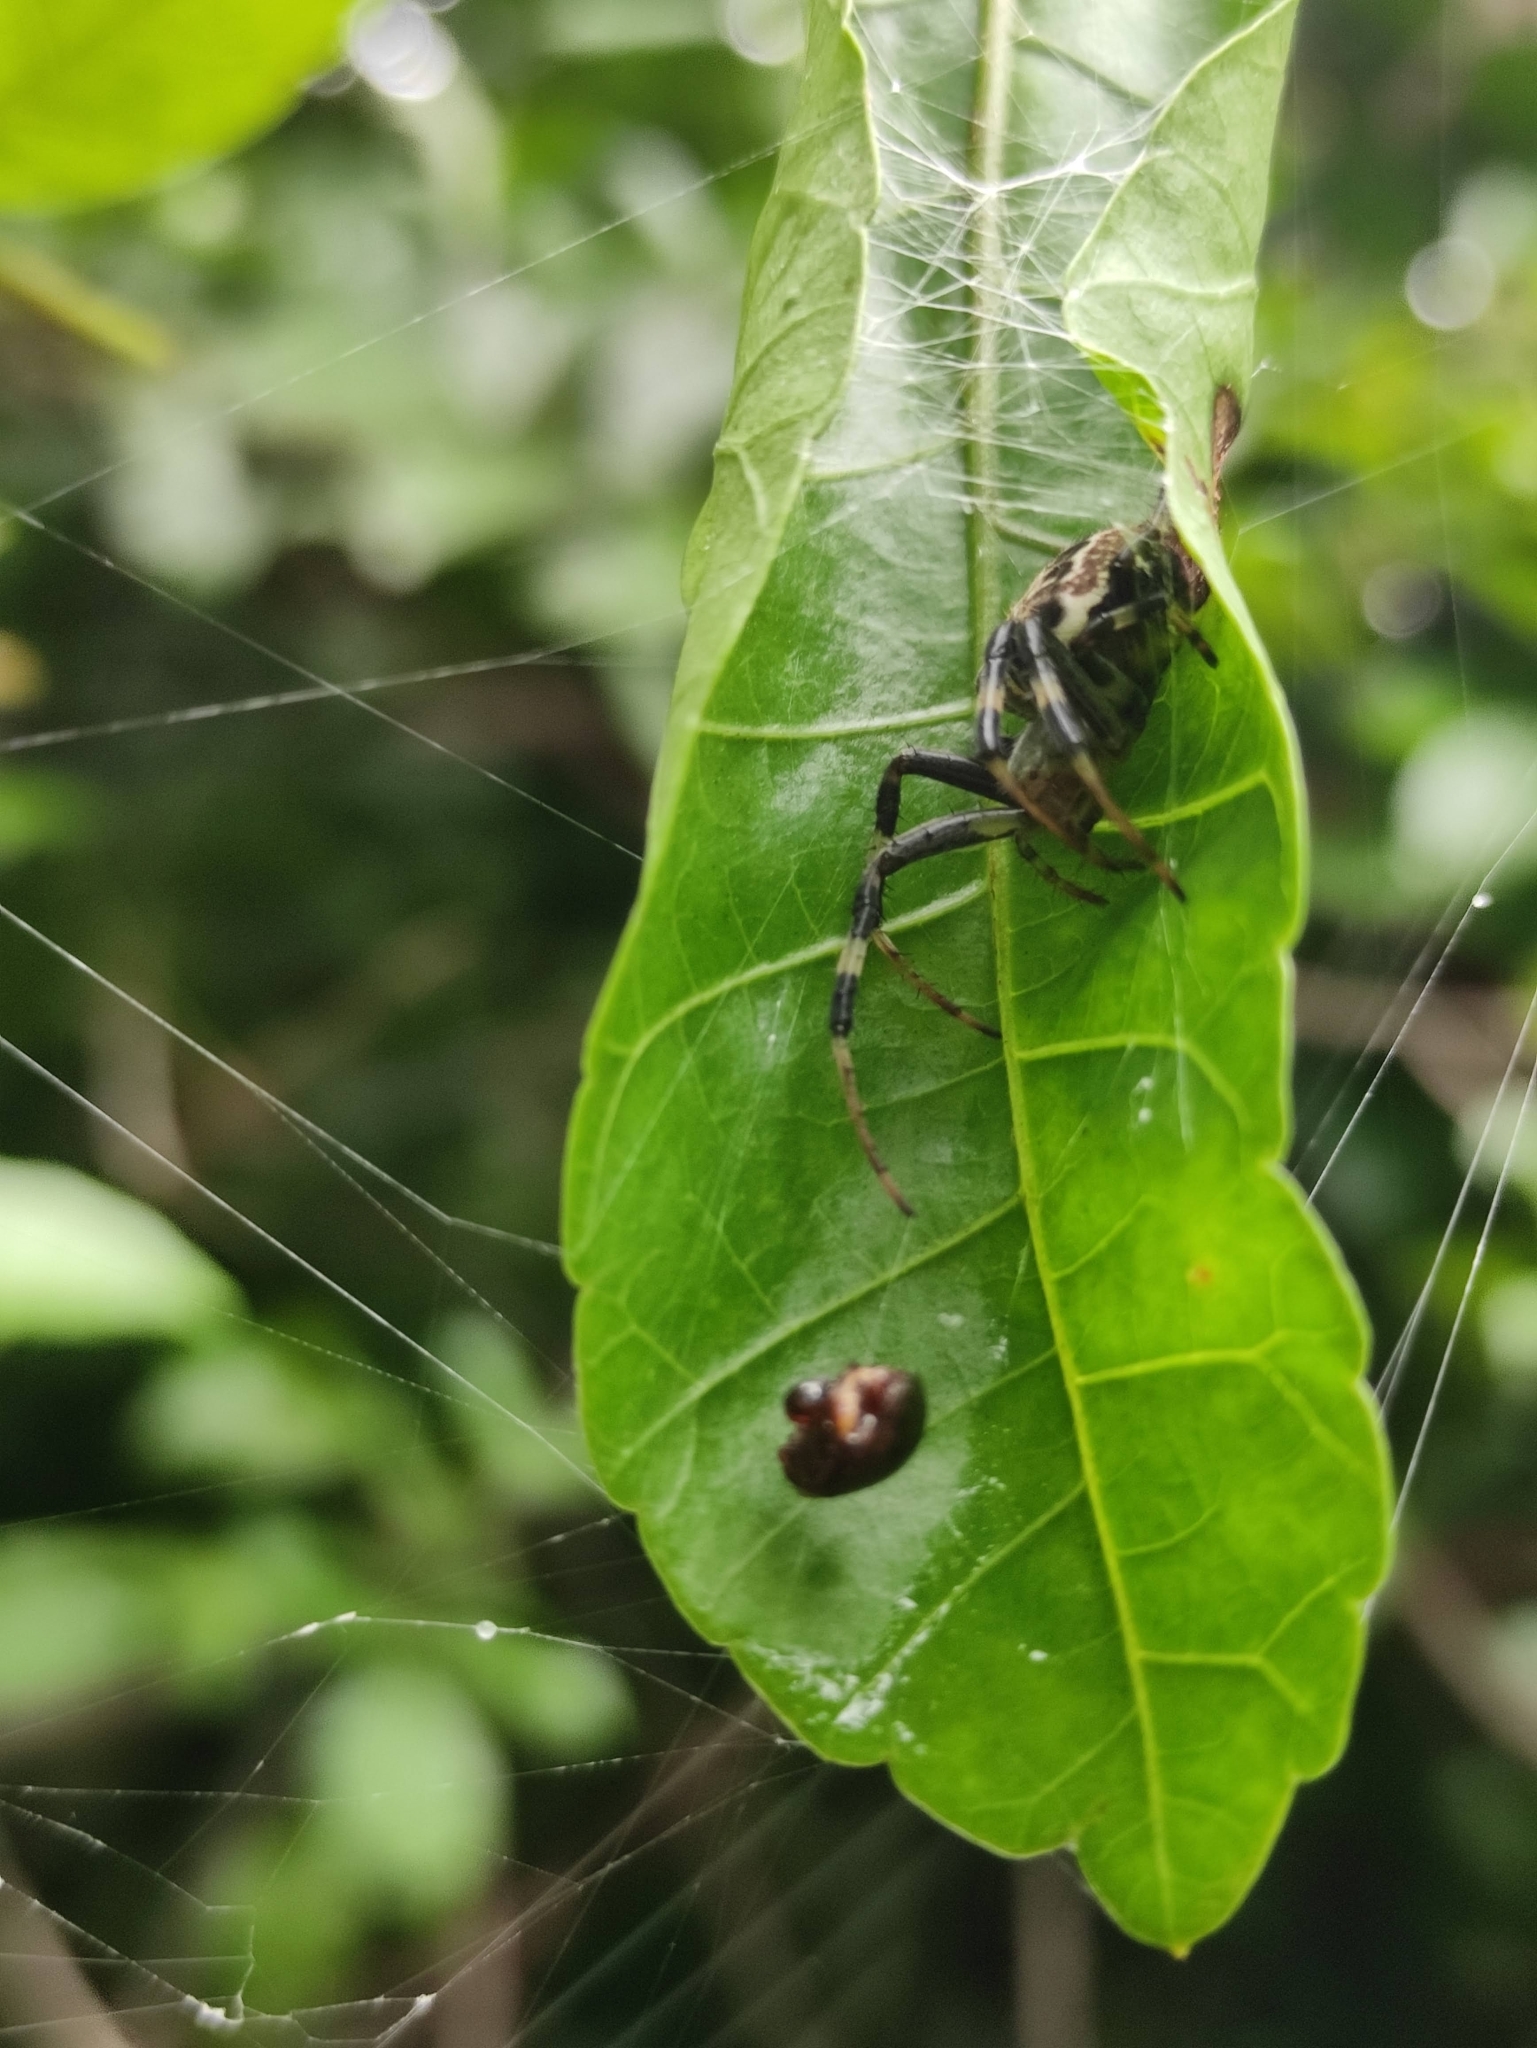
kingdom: Animalia
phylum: Arthropoda
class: Arachnida
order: Araneae
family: Araneidae
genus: Araneus
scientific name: Araneus venatrix
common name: Orb weavers
